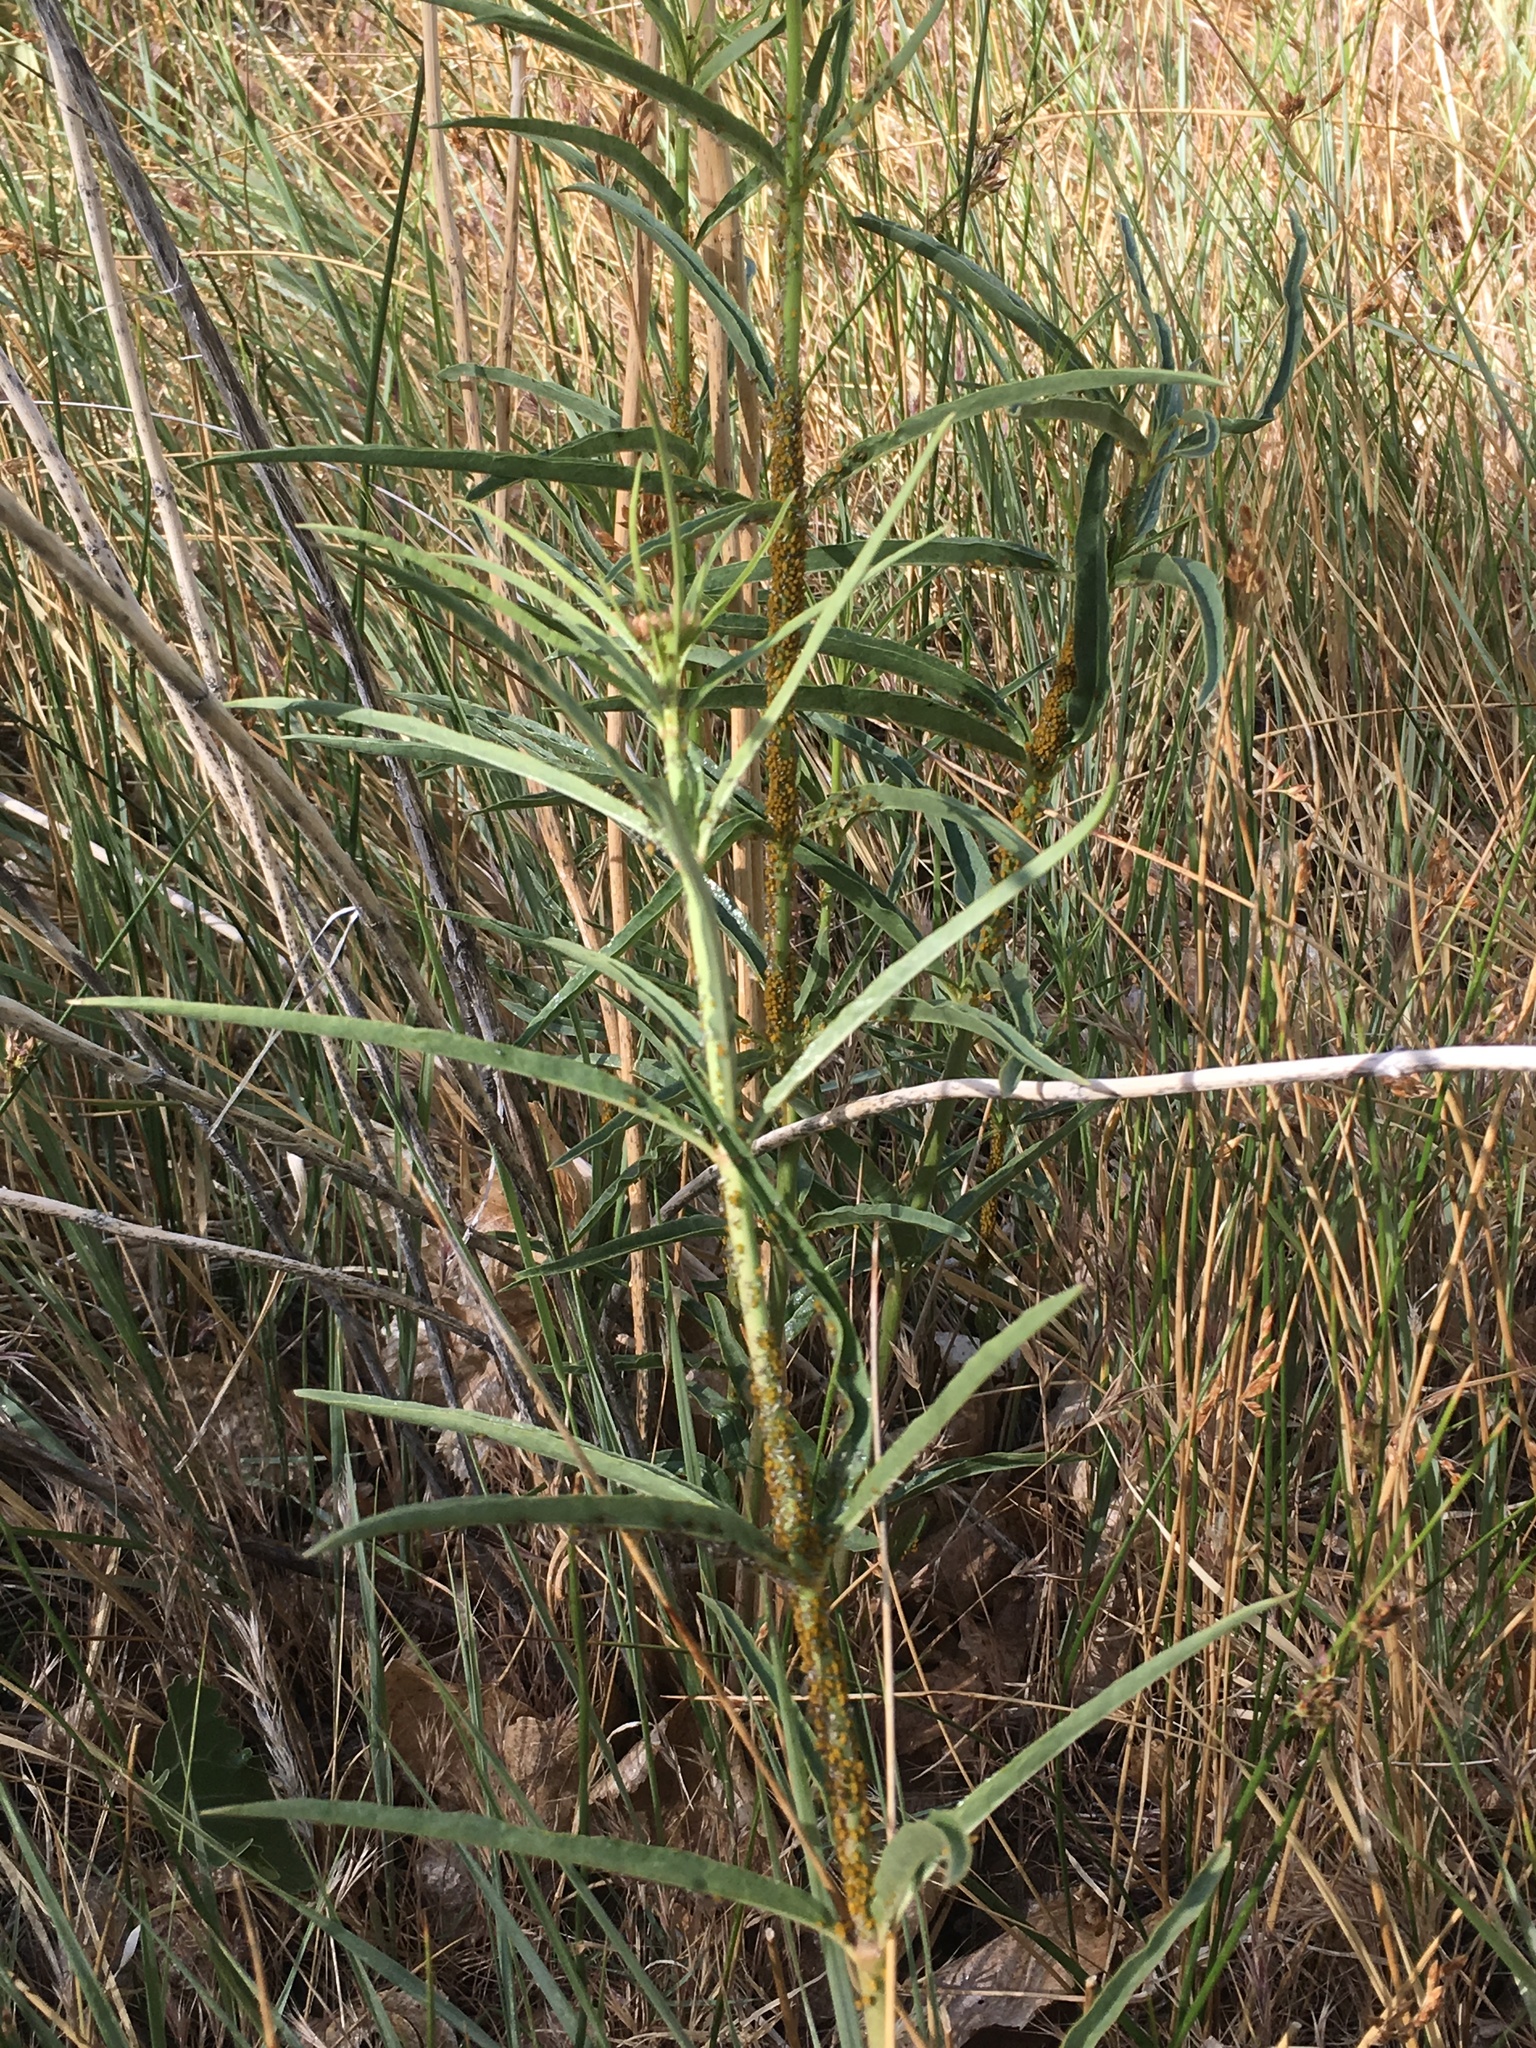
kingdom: Plantae
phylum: Tracheophyta
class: Magnoliopsida
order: Gentianales
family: Apocynaceae
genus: Asclepias
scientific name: Asclepias fascicularis
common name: Mexican milkweed
